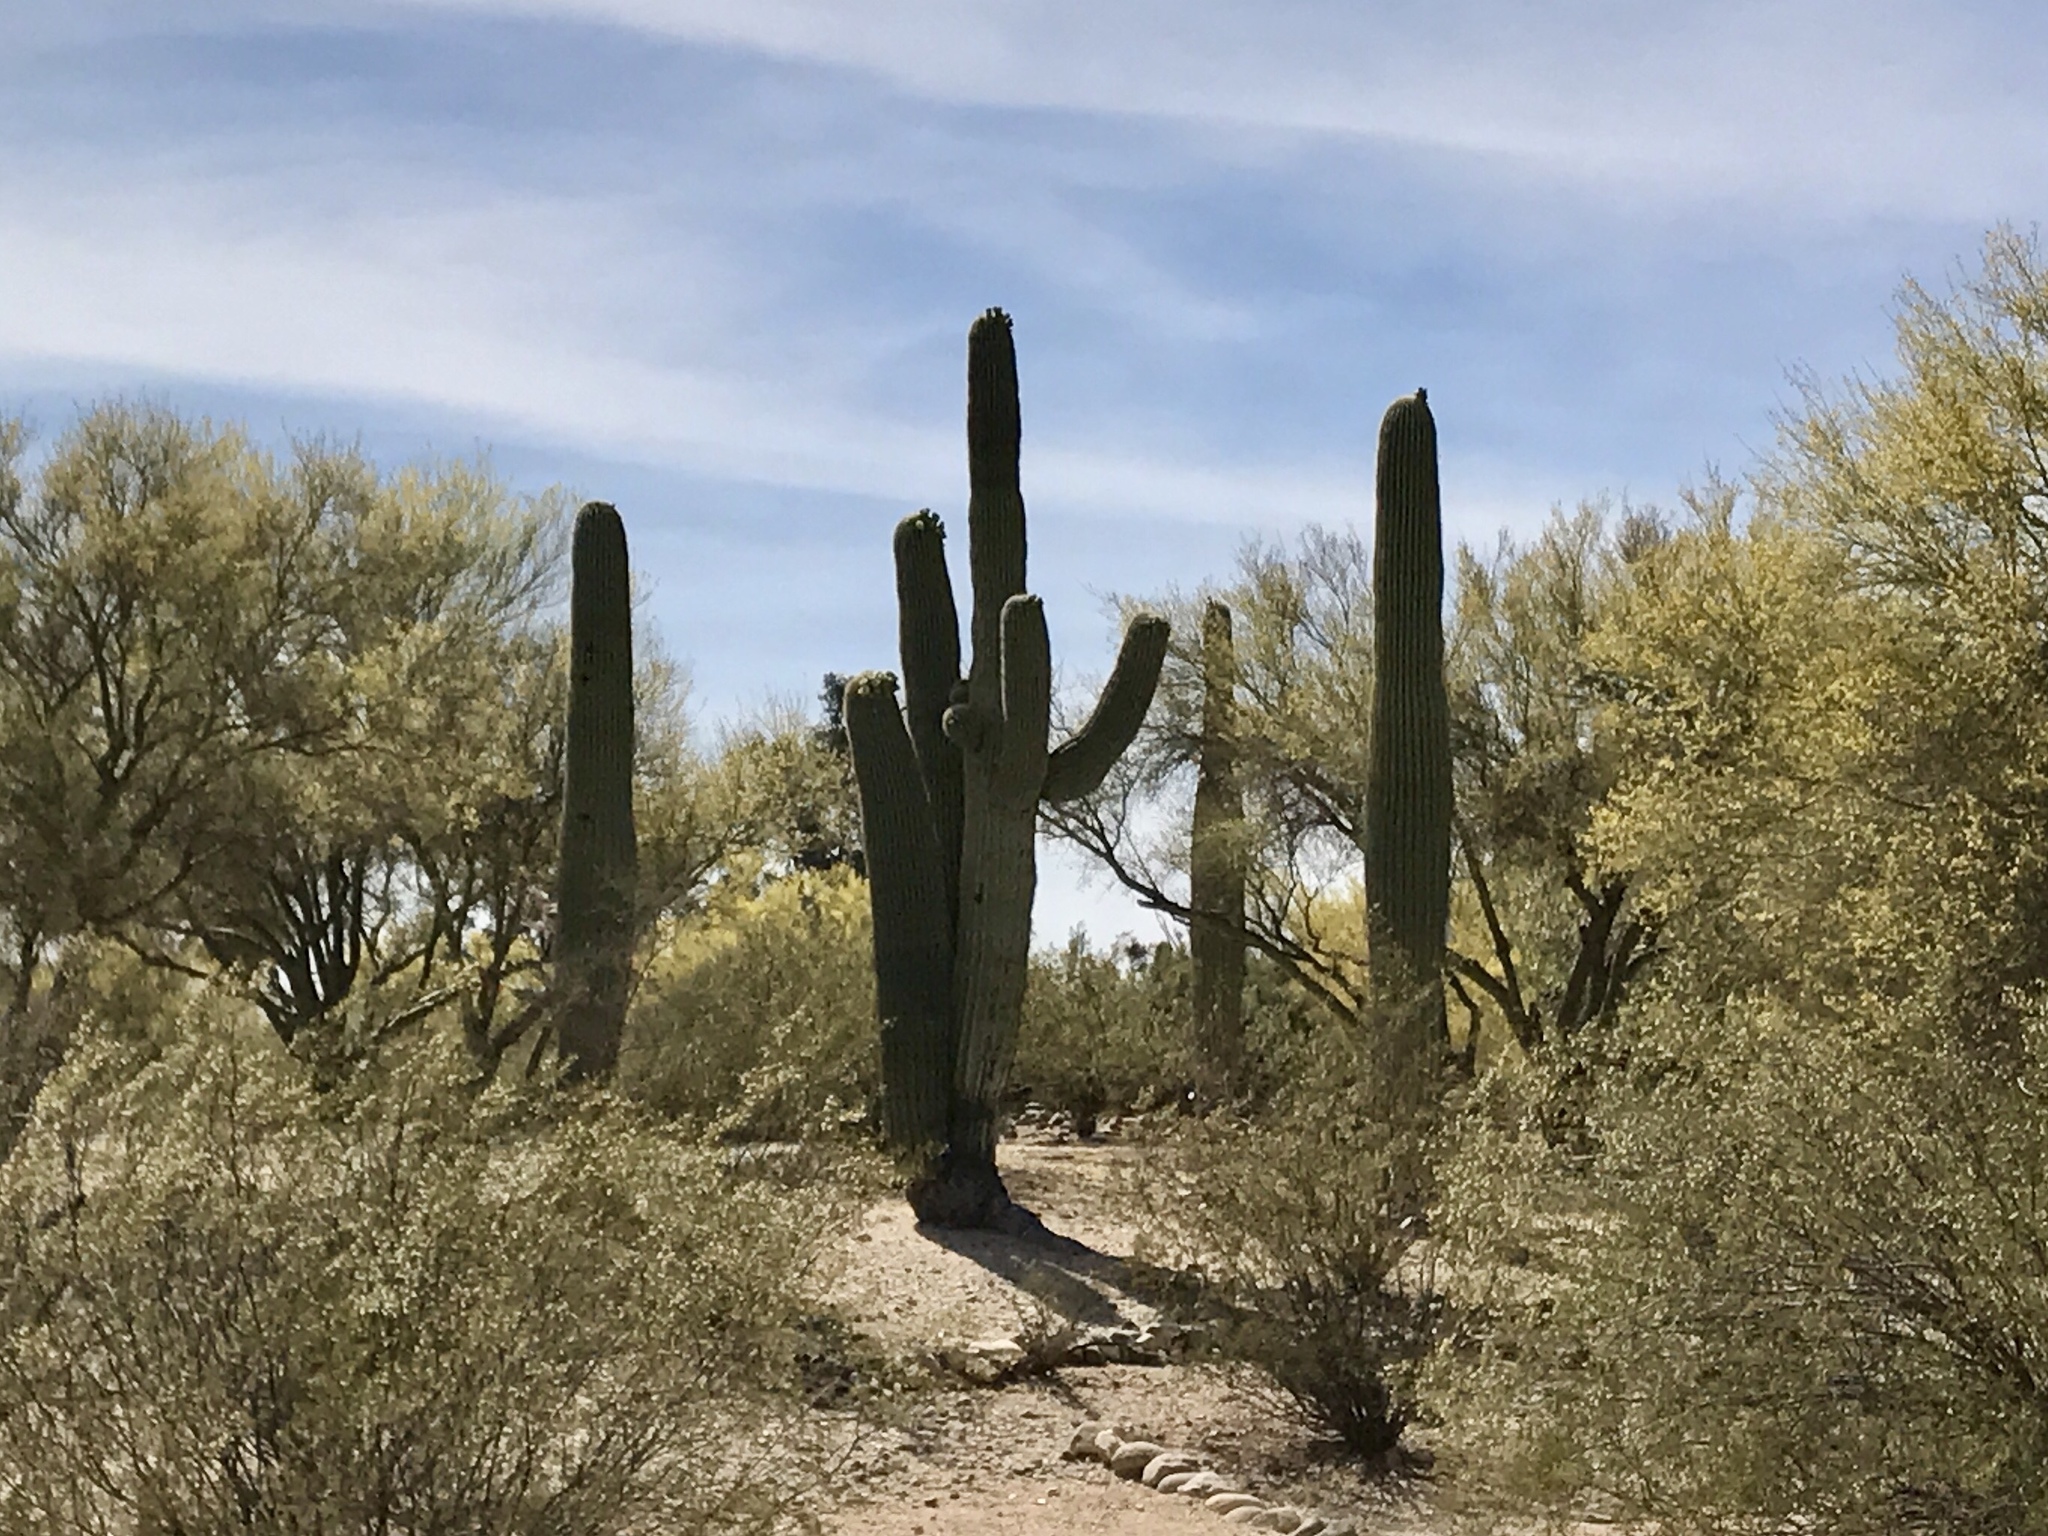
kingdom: Plantae
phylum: Tracheophyta
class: Magnoliopsida
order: Caryophyllales
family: Cactaceae
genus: Carnegiea
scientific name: Carnegiea gigantea
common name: Saguaro
